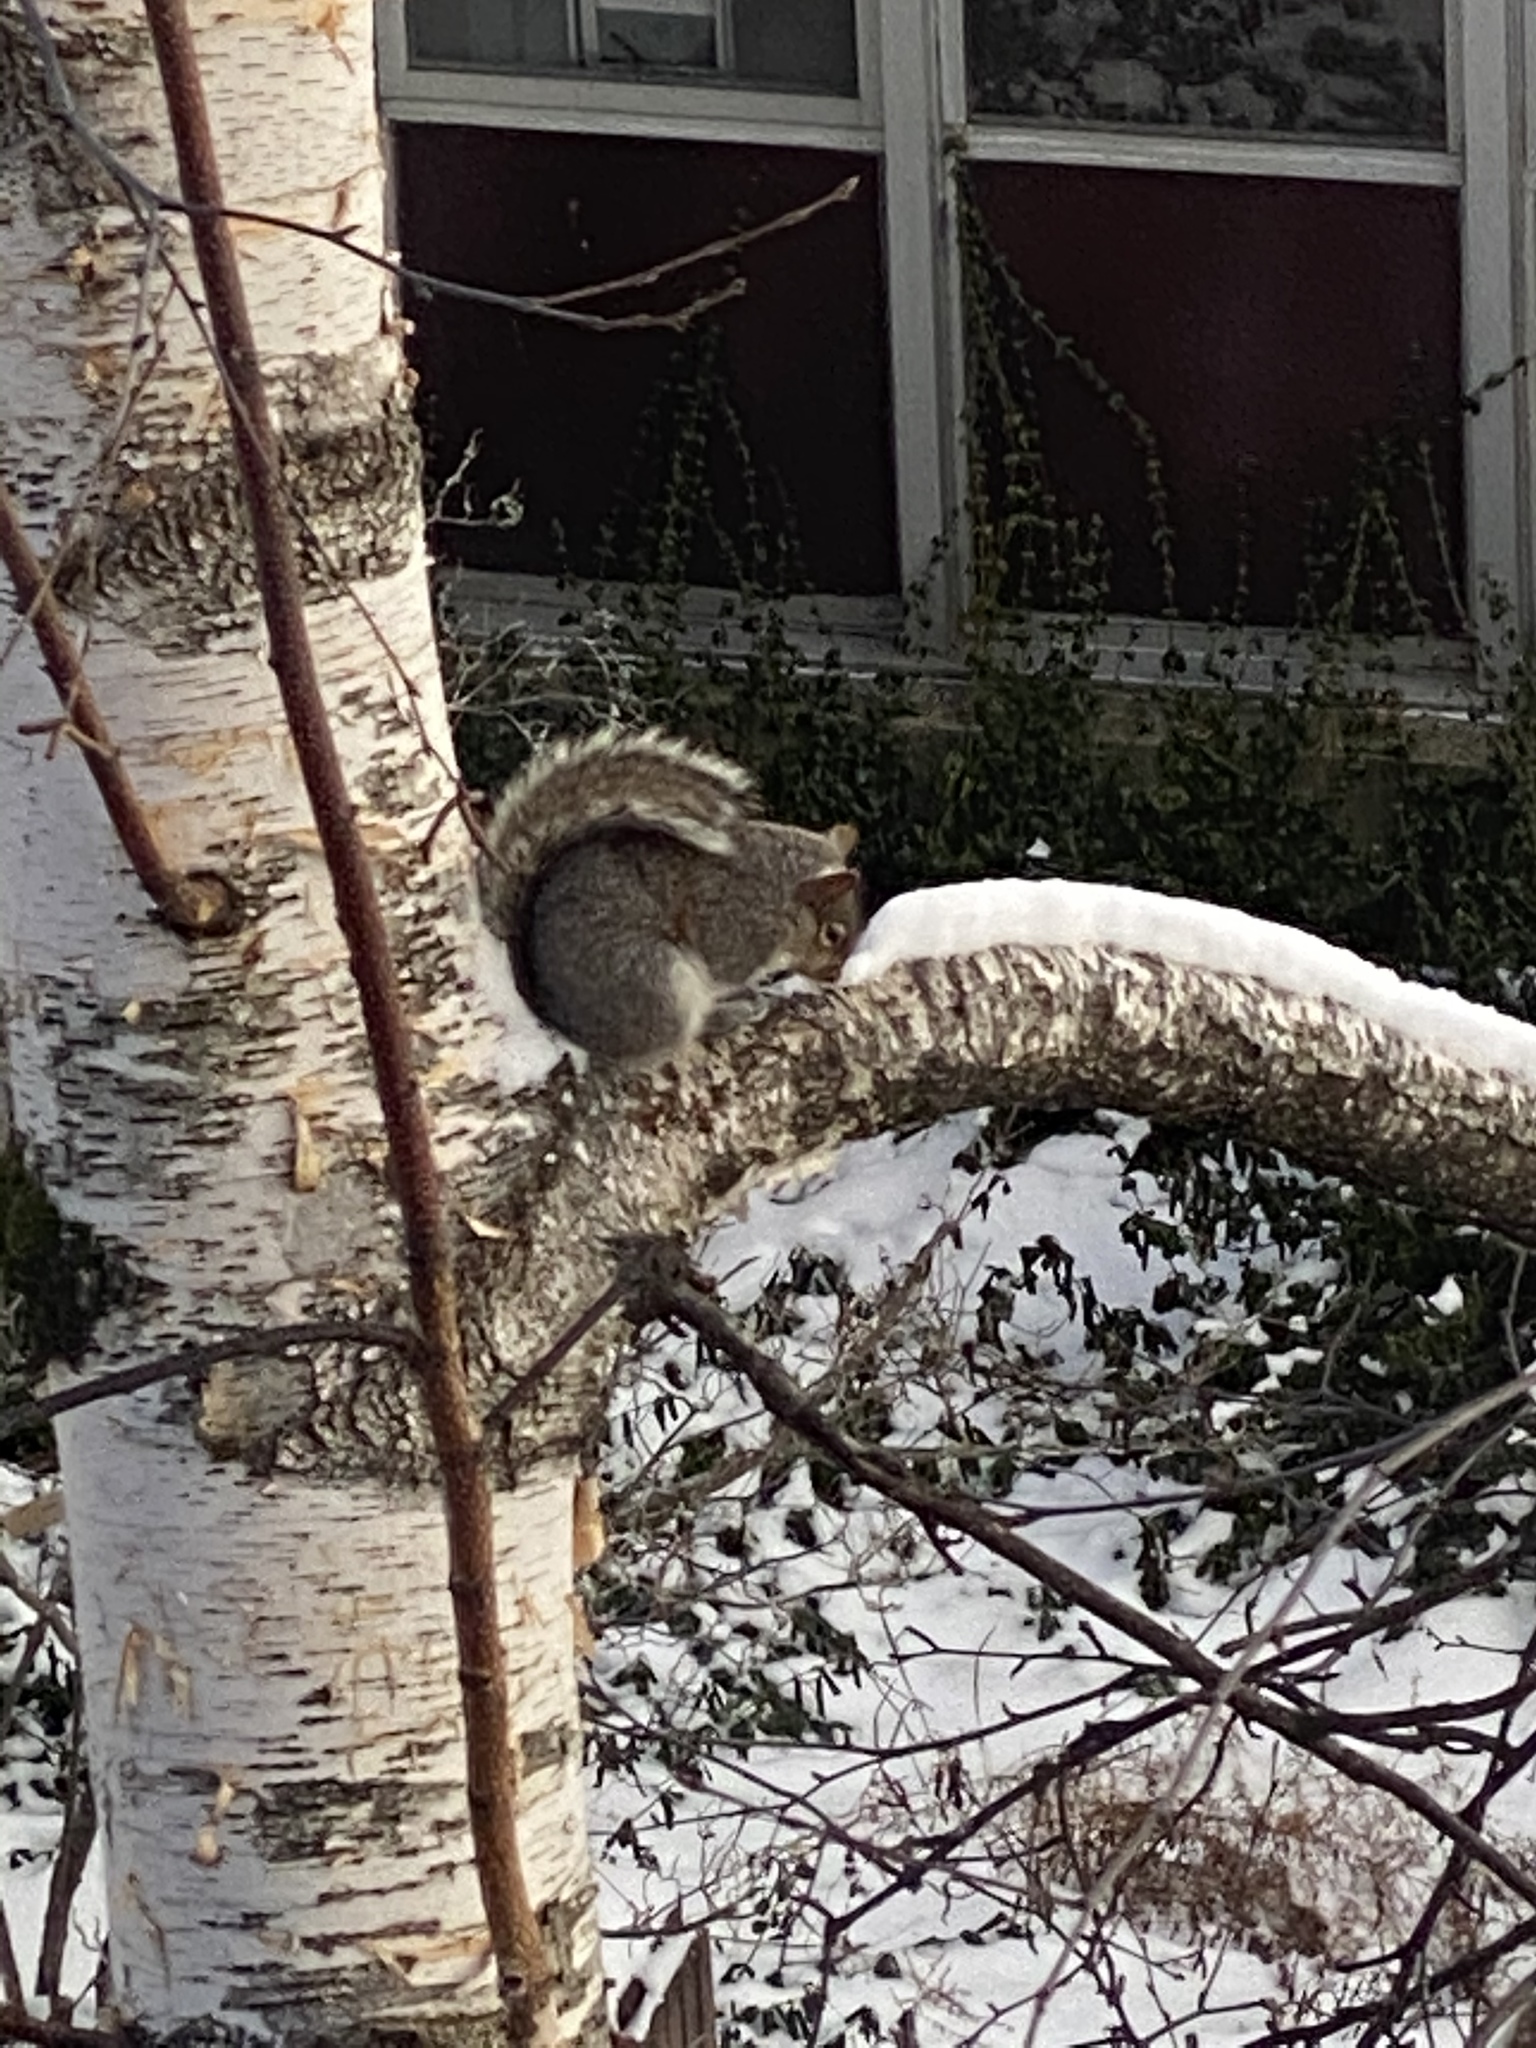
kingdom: Animalia
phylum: Chordata
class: Mammalia
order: Rodentia
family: Sciuridae
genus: Sciurus
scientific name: Sciurus carolinensis
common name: Eastern gray squirrel
